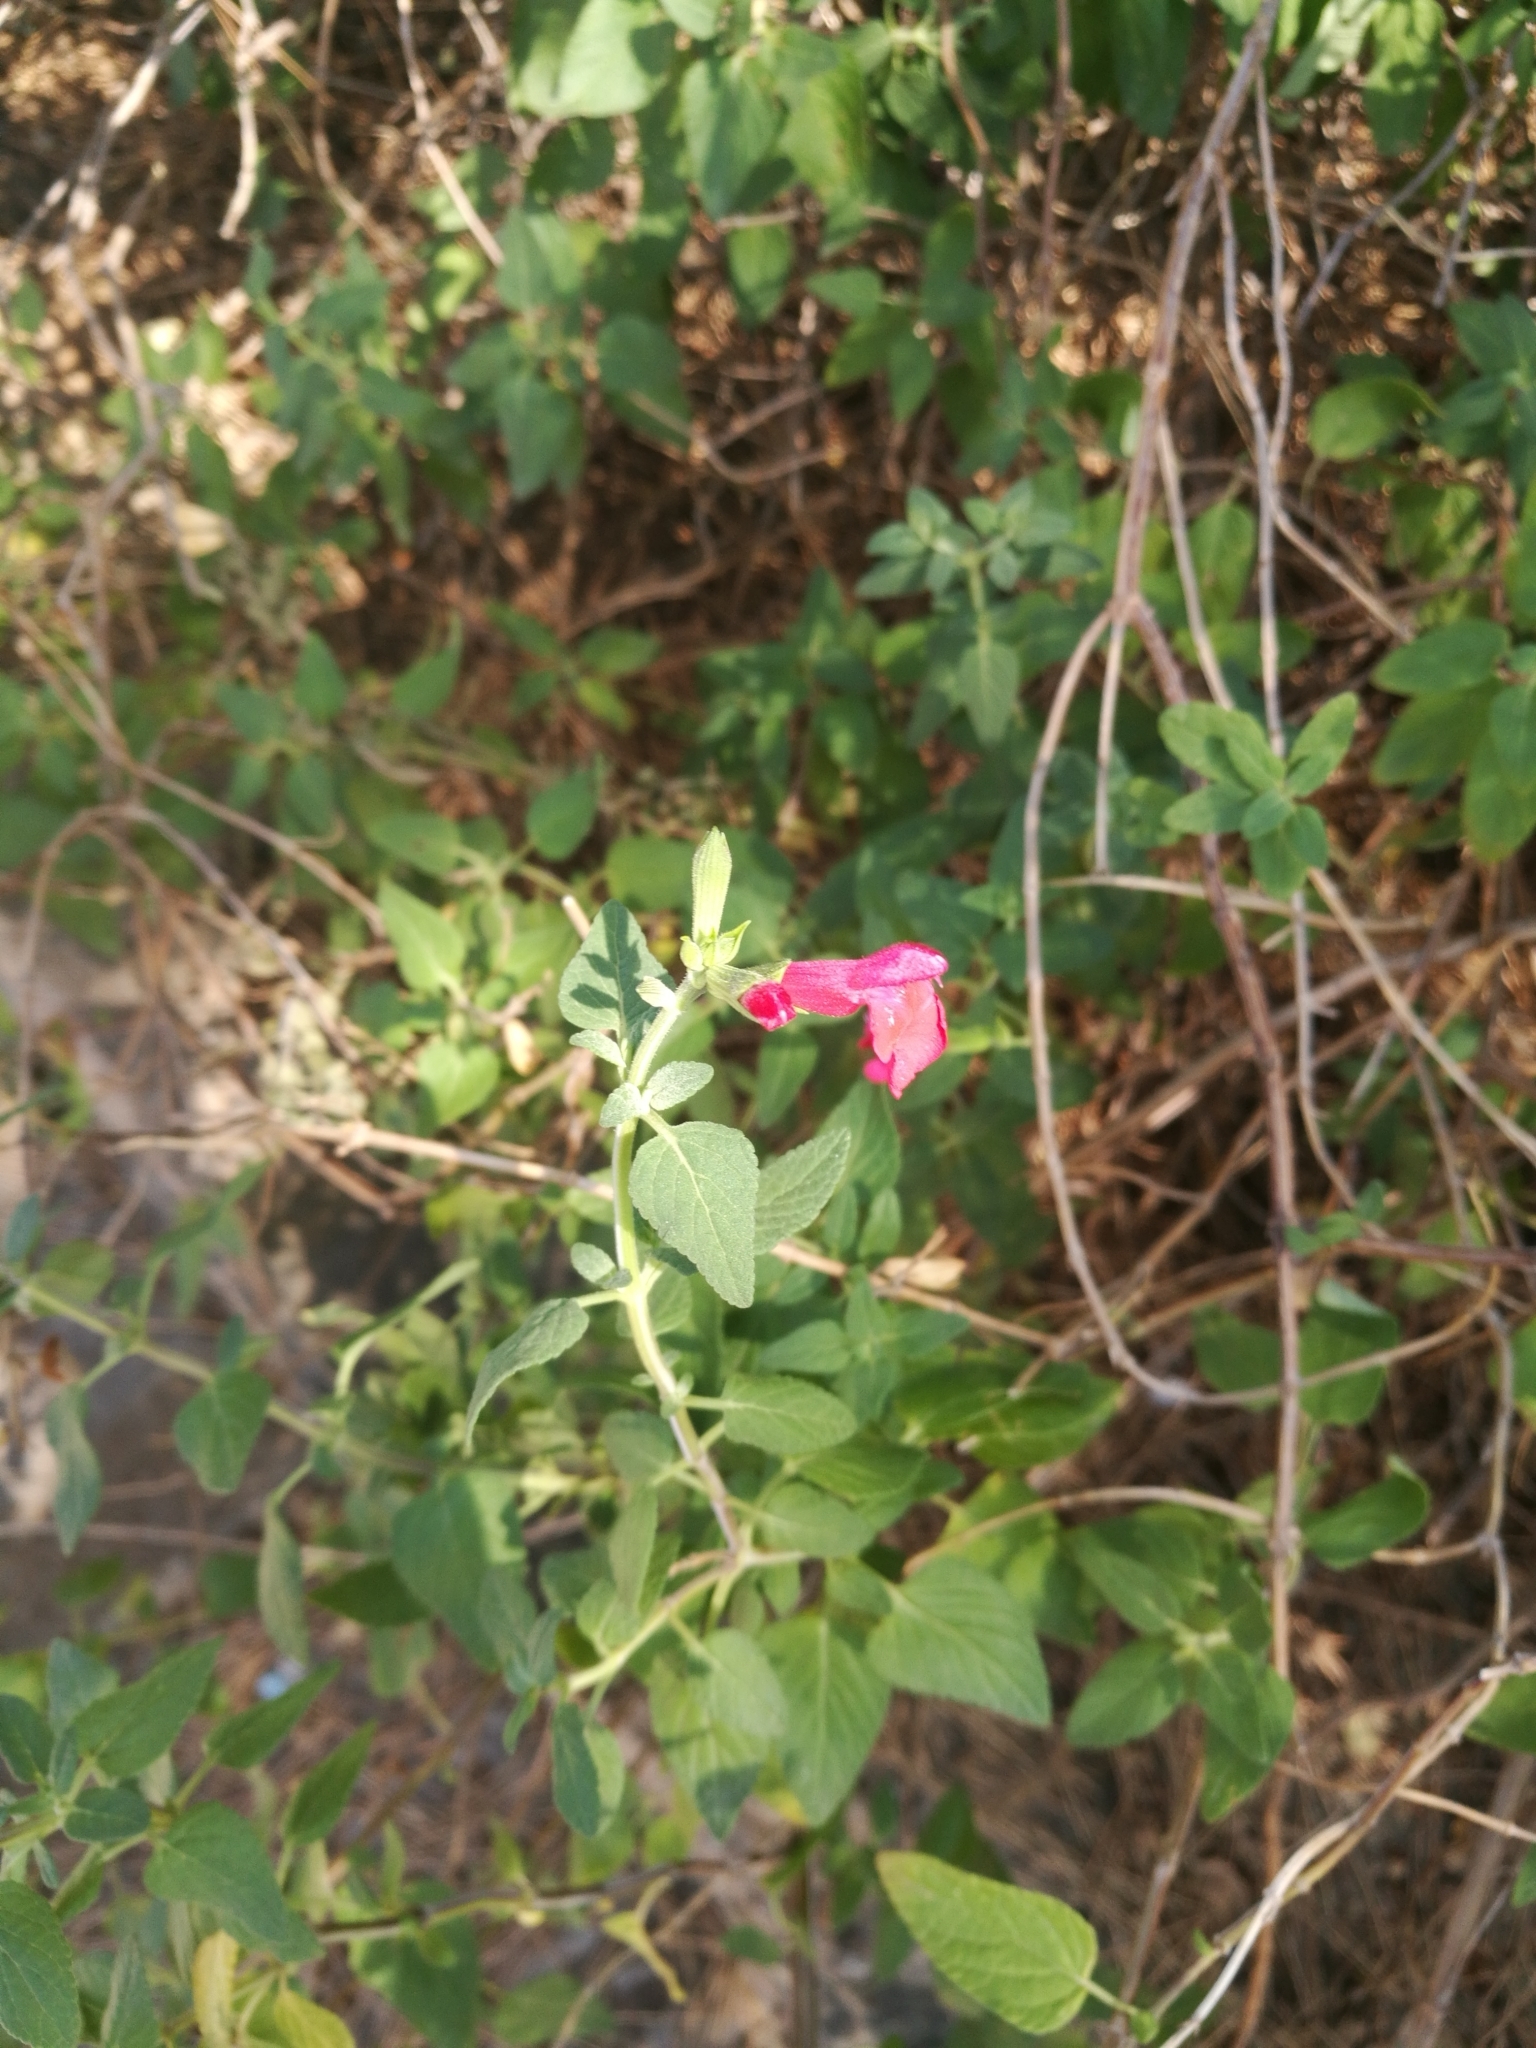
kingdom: Plantae
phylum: Tracheophyta
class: Magnoliopsida
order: Lamiales
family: Lamiaceae
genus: Salvia
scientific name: Salvia microphylla
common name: Baby sage
